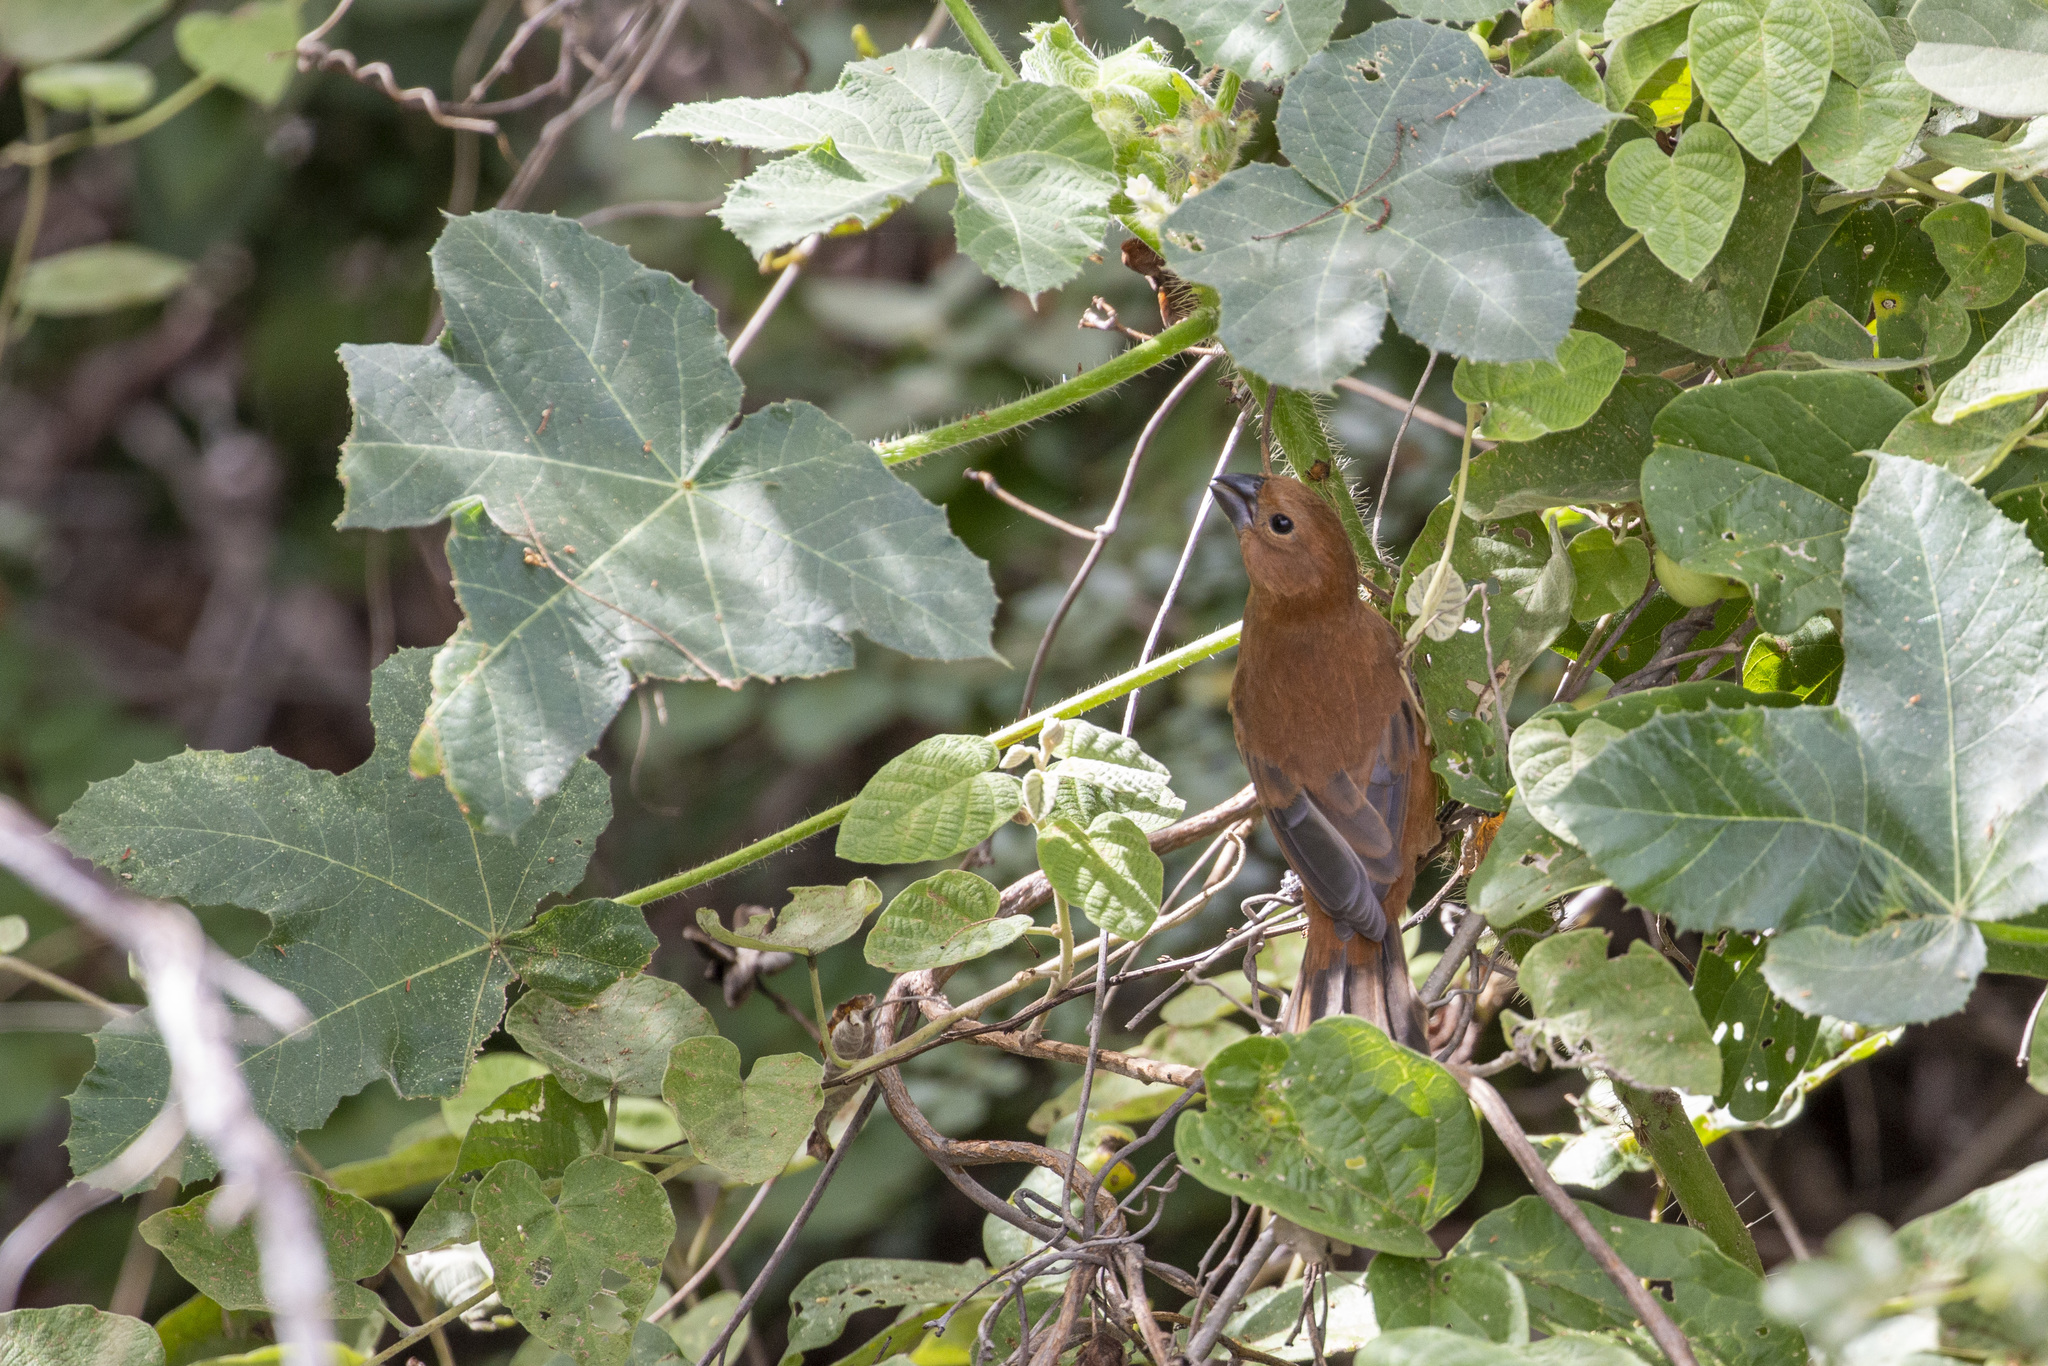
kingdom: Animalia
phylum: Chordata
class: Aves
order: Passeriformes
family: Cardinalidae
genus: Cyanoloxia
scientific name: Cyanoloxia brissonii
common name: Ultramarine grosbeak
